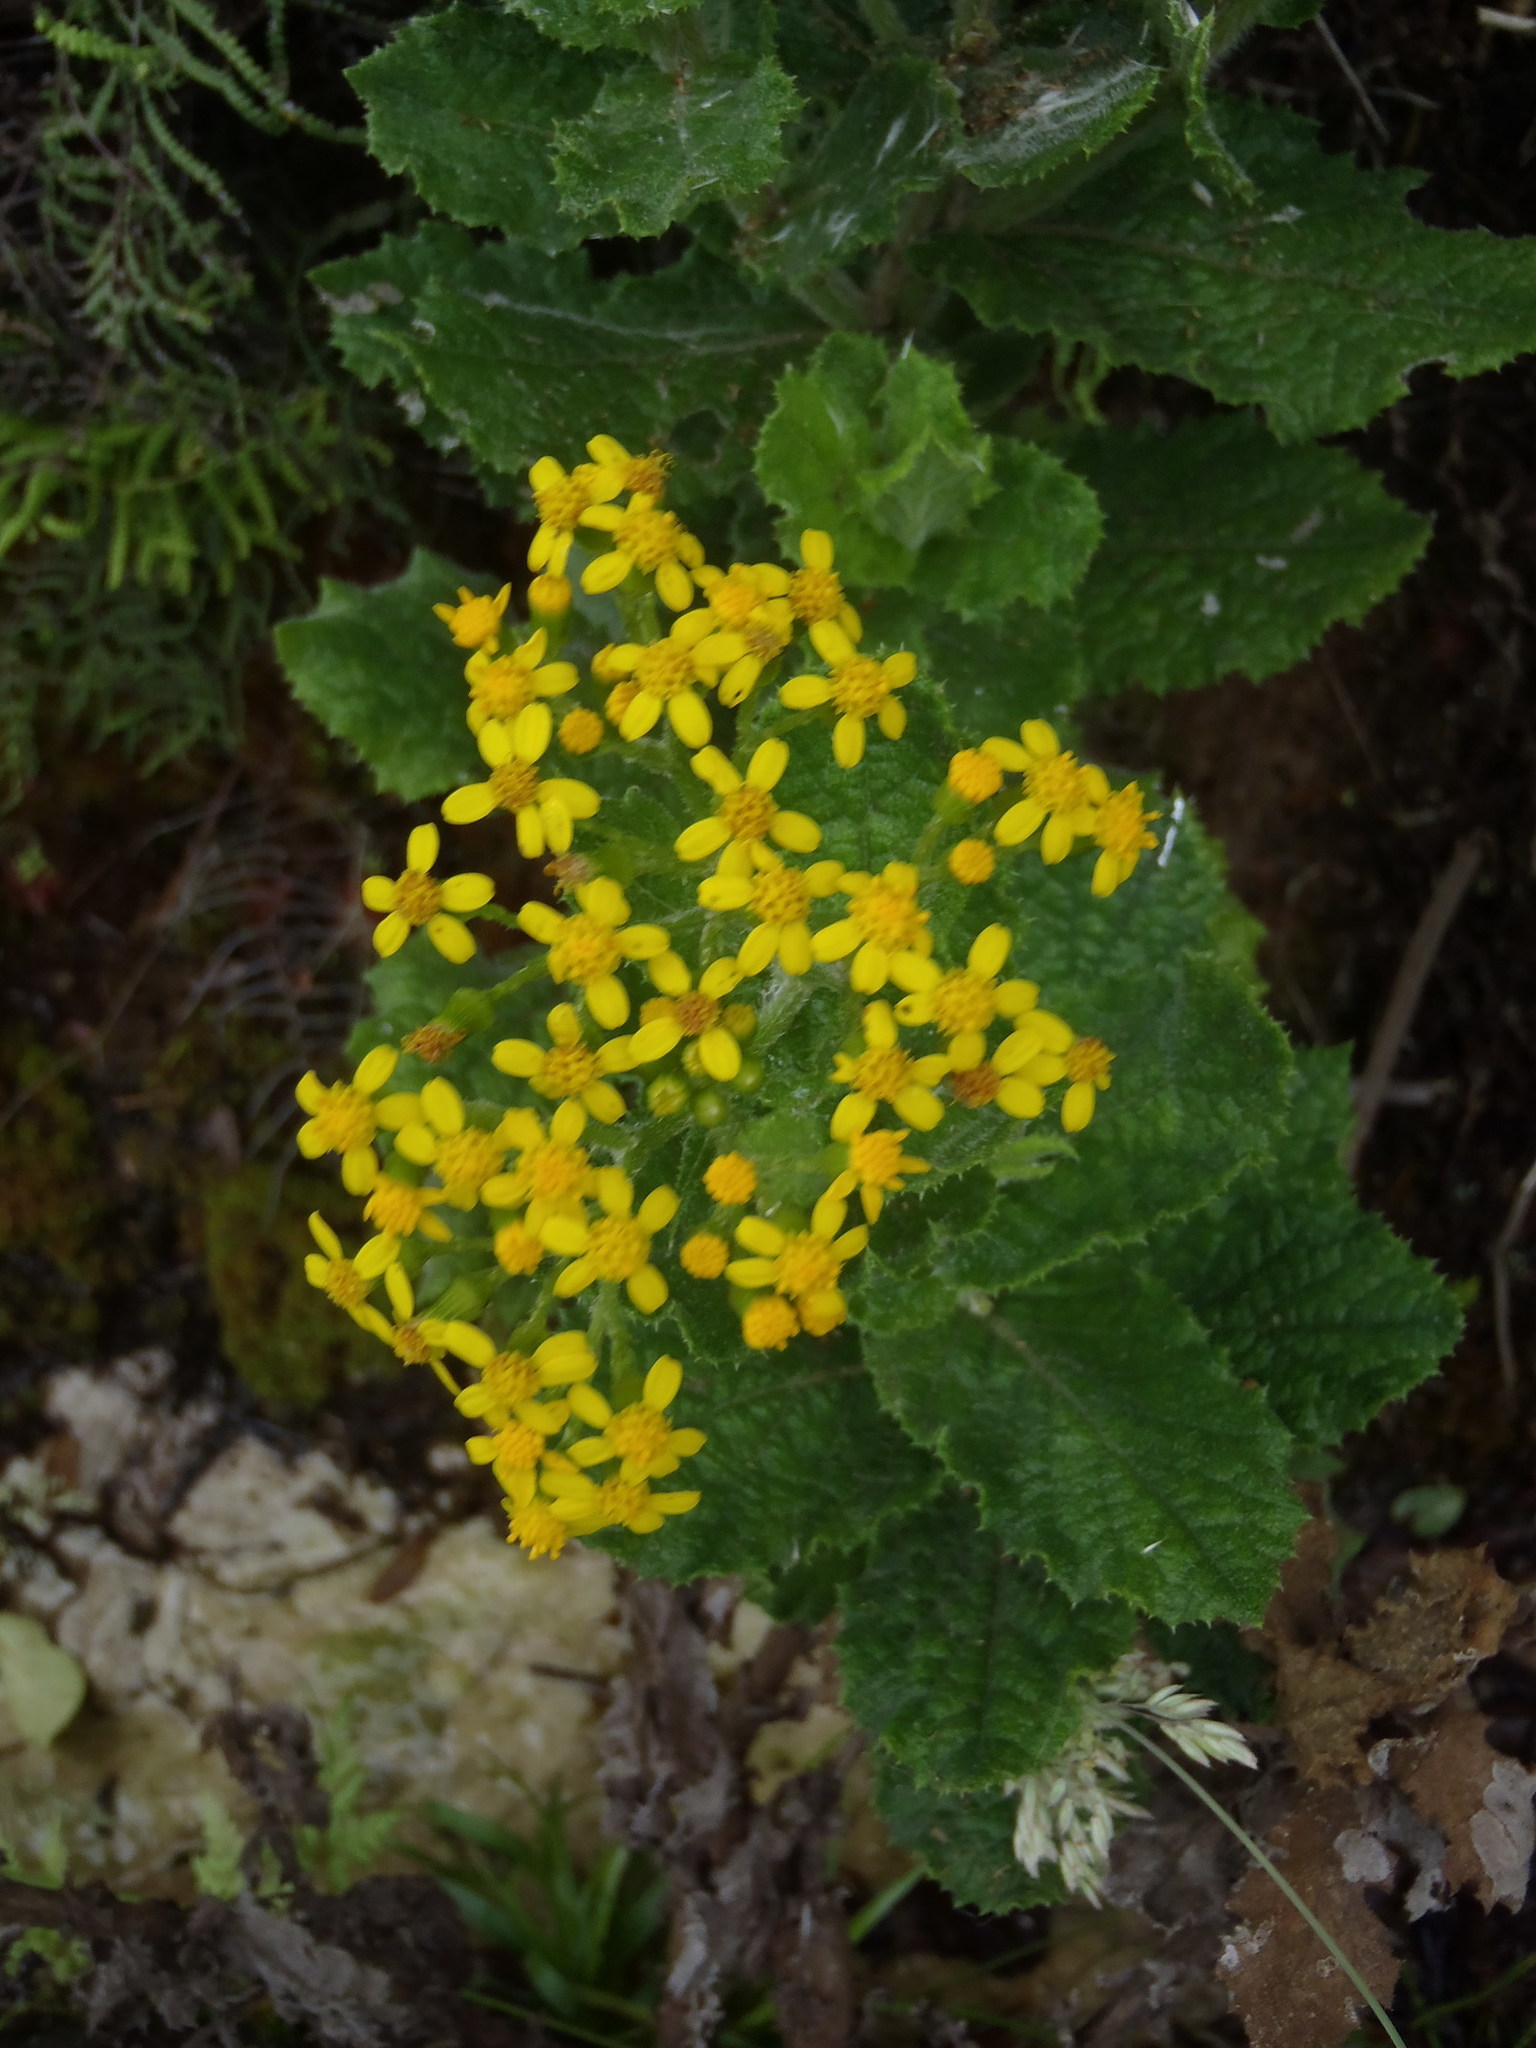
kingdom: Plantae
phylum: Tracheophyta
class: Magnoliopsida
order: Asterales
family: Asteraceae
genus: Senecio
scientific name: Senecio rigidus
